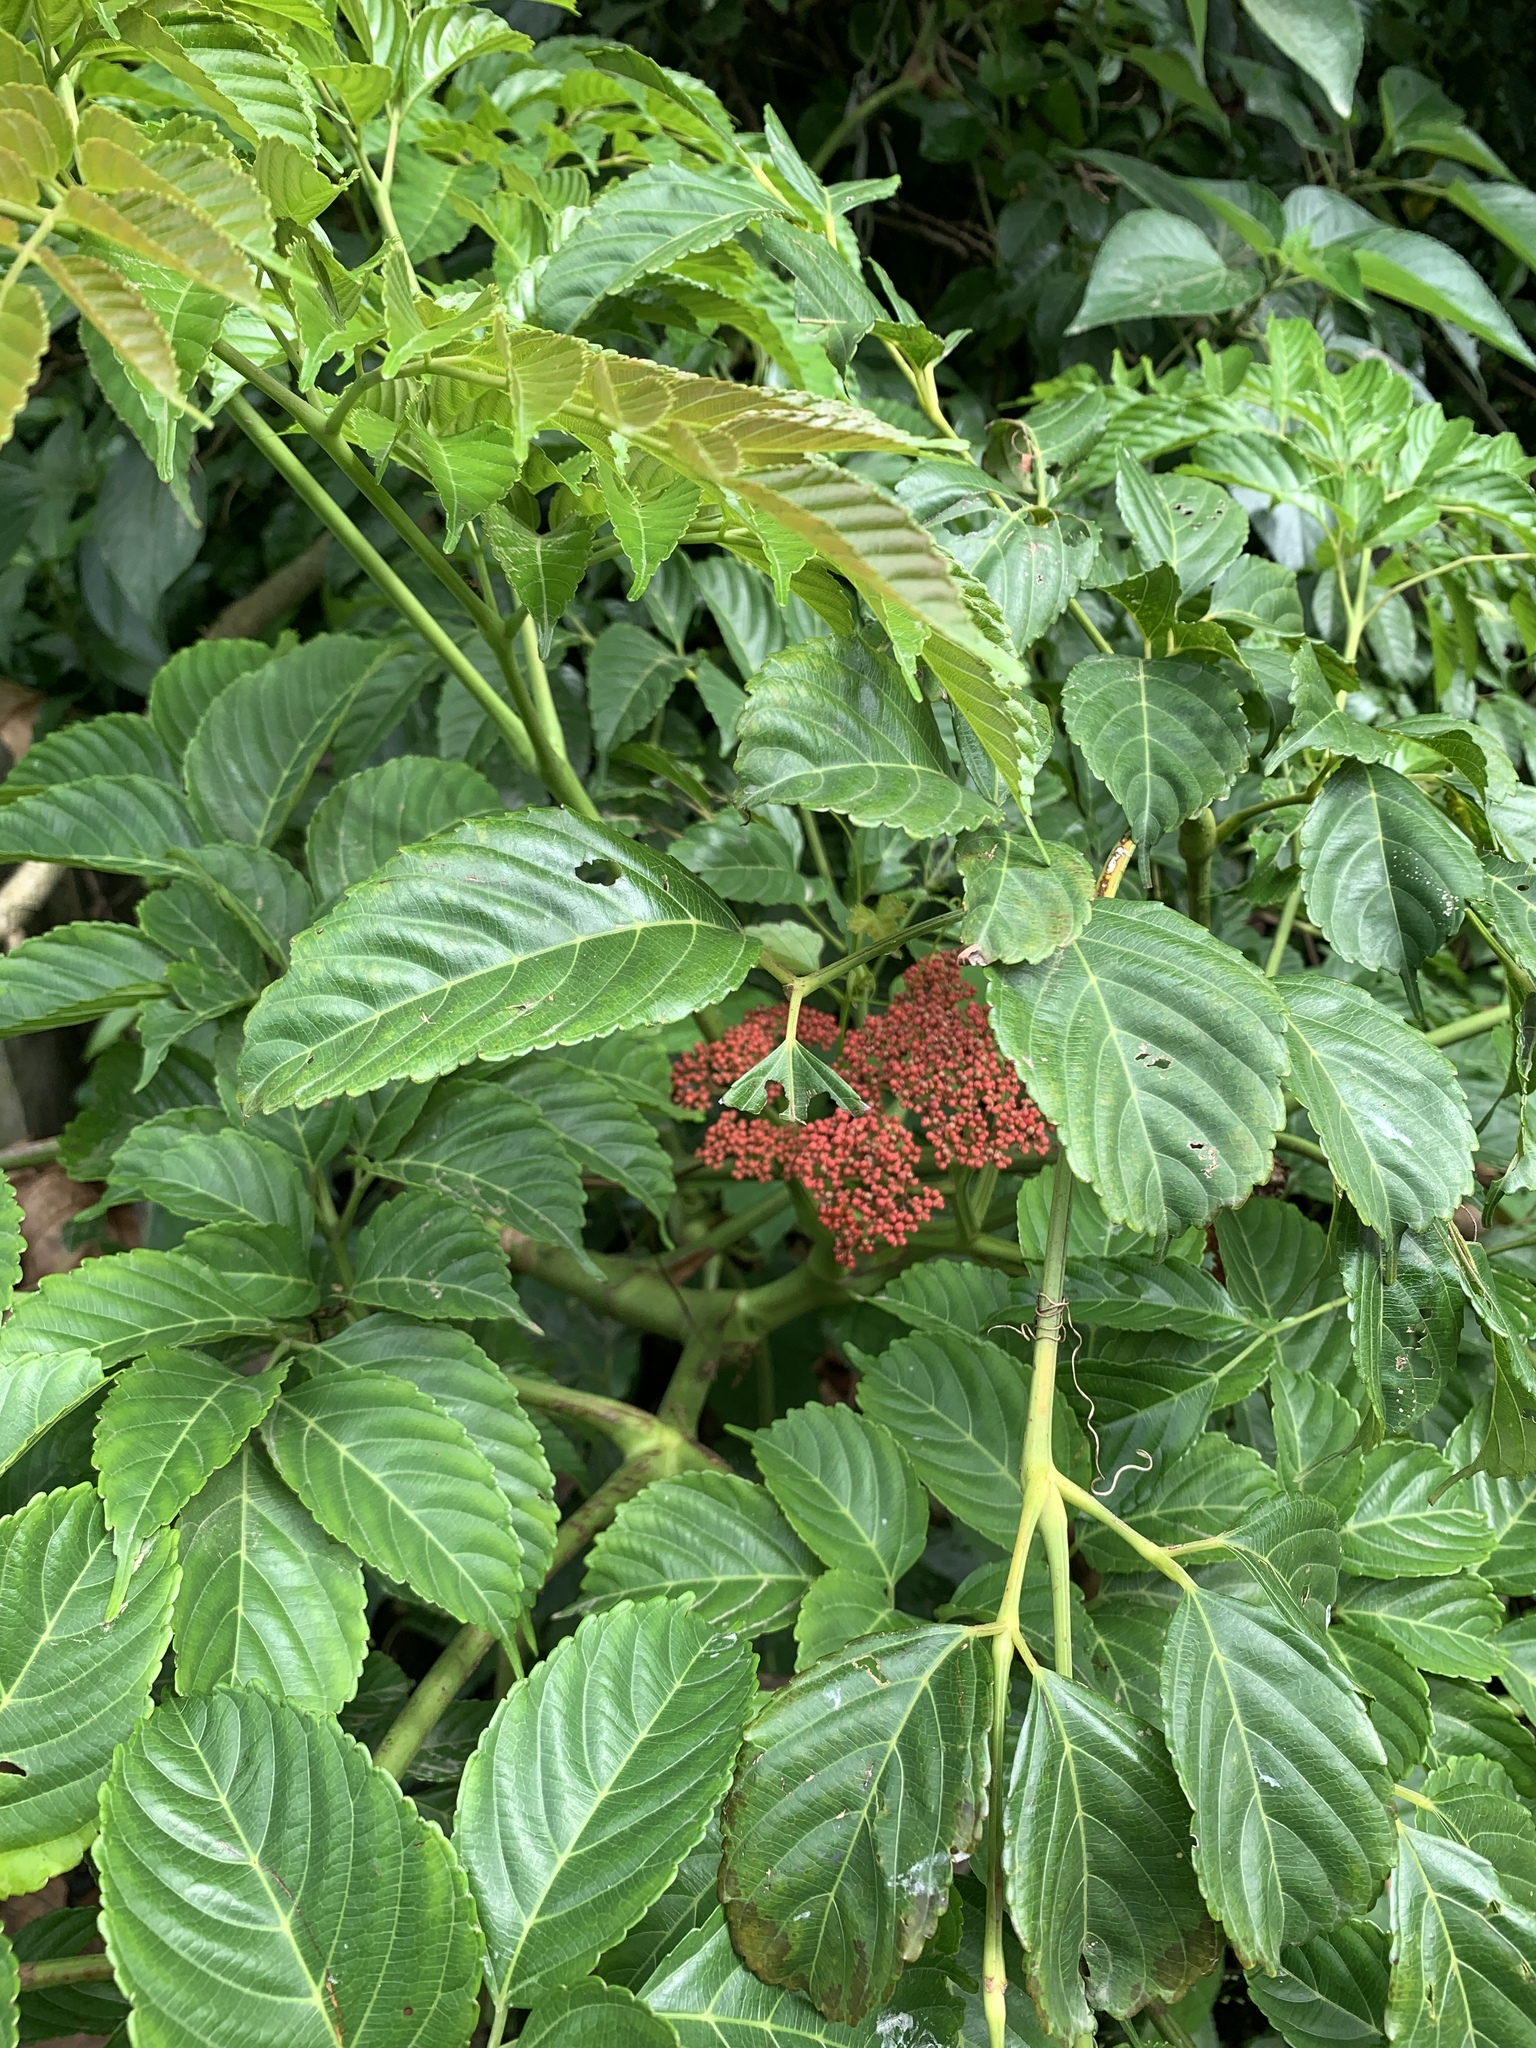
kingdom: Plantae
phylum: Tracheophyta
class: Magnoliopsida
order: Vitales
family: Vitaceae
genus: Leea
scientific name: Leea guineensis
